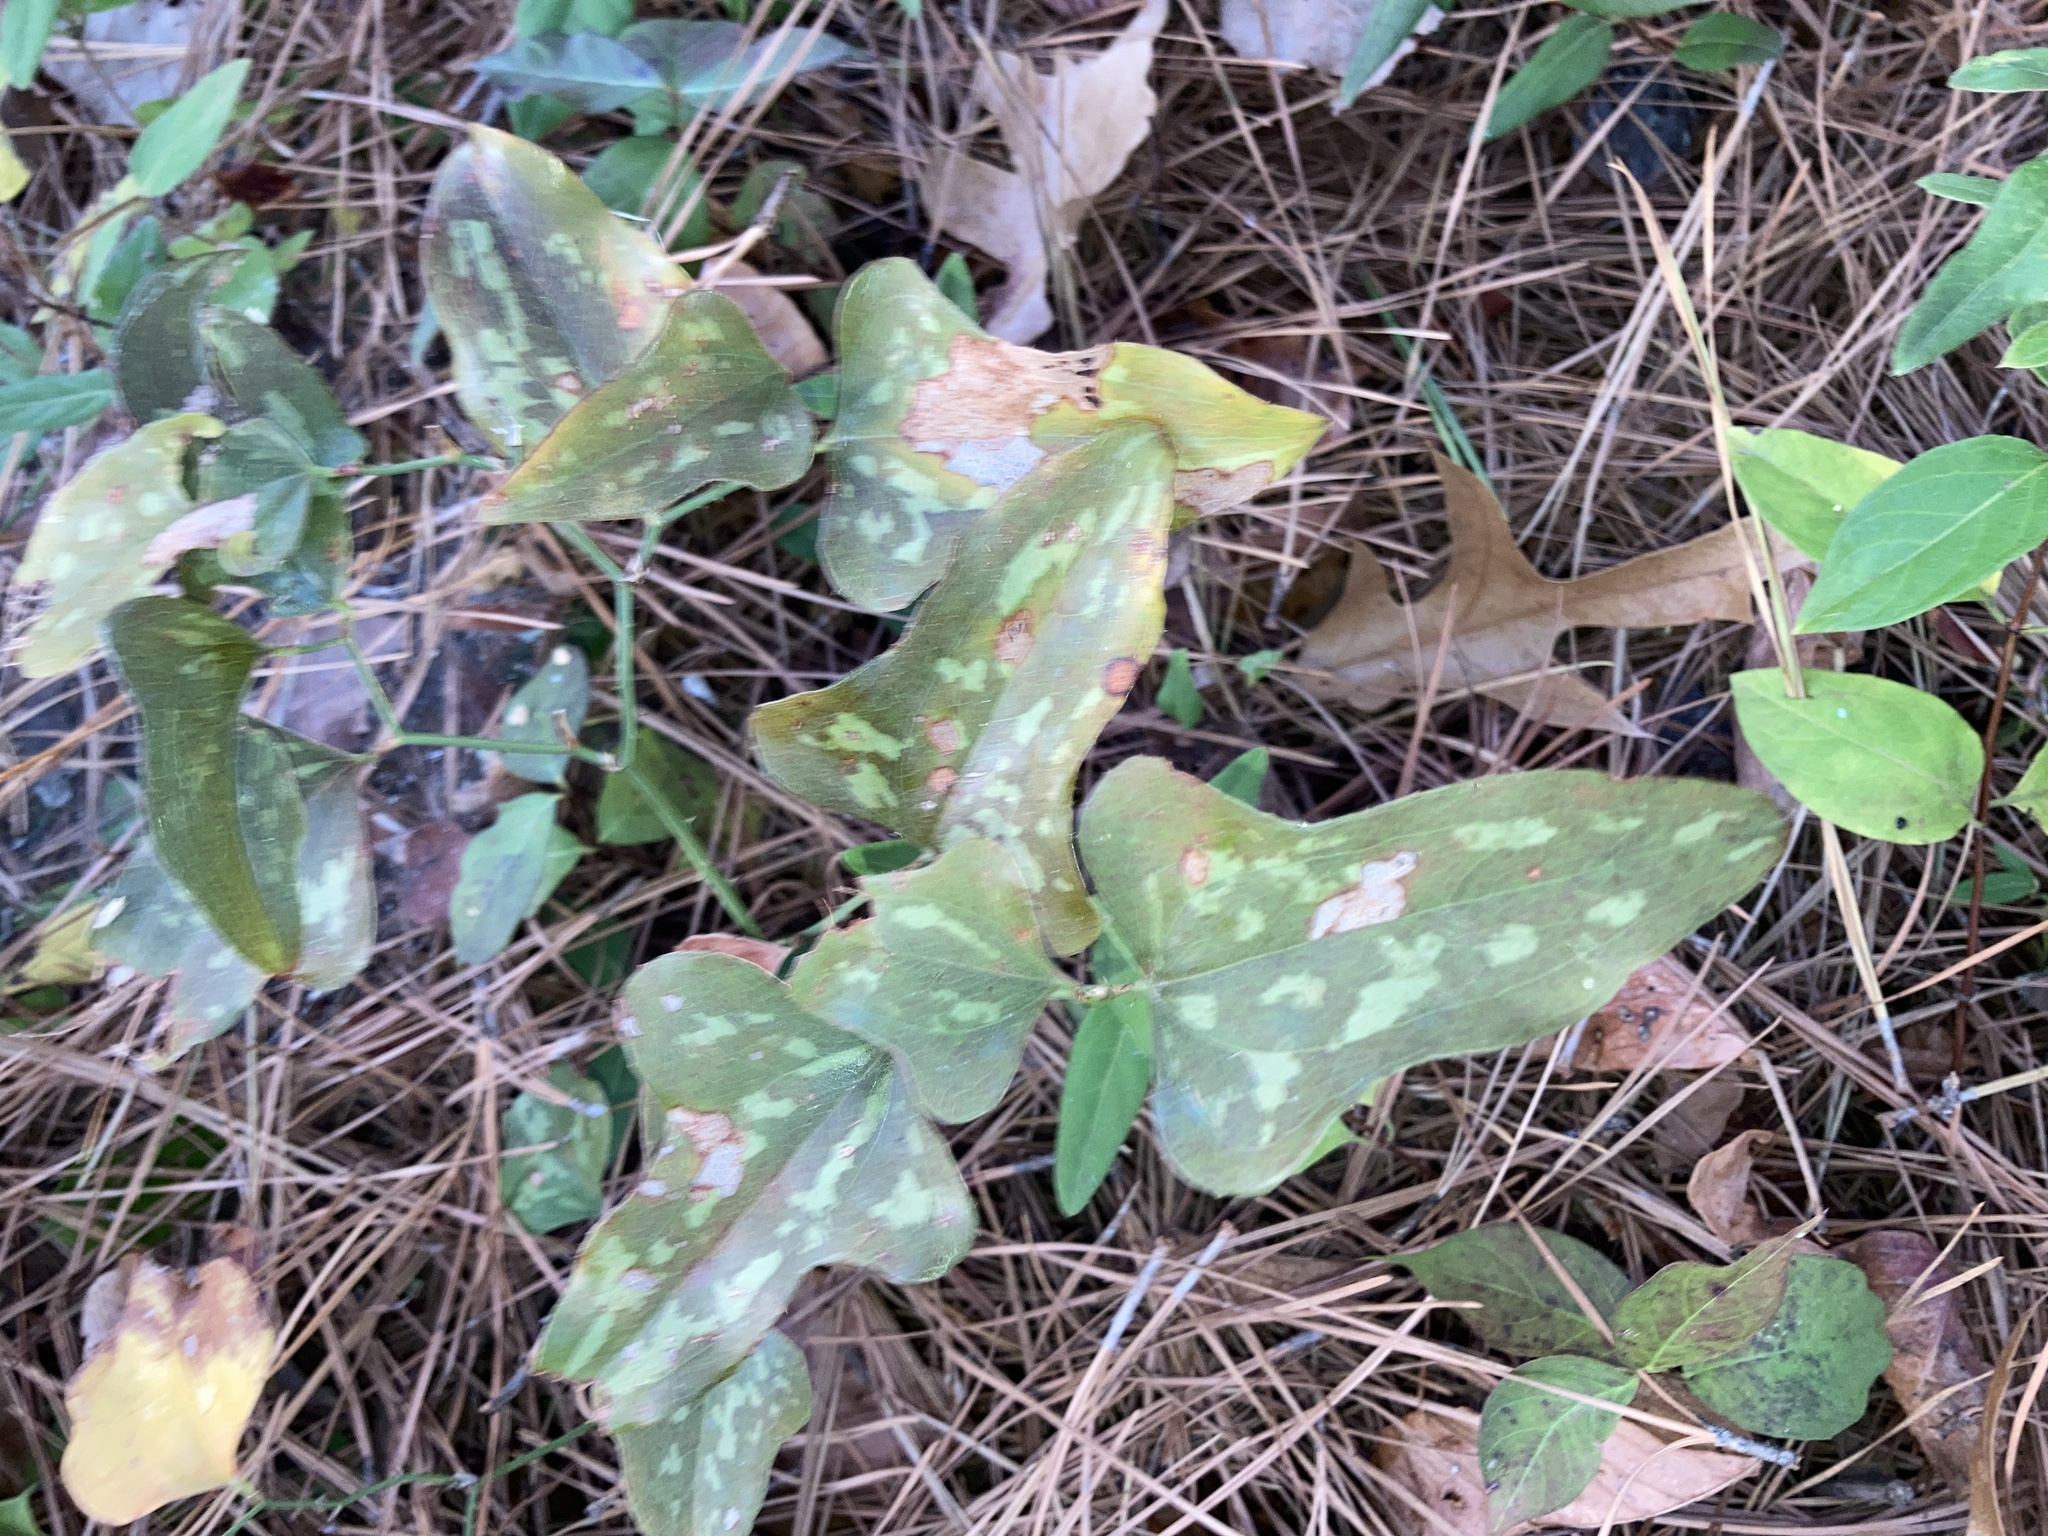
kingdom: Plantae
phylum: Tracheophyta
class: Liliopsida
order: Liliales
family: Smilacaceae
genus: Smilax
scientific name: Smilax bona-nox
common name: Catbrier
